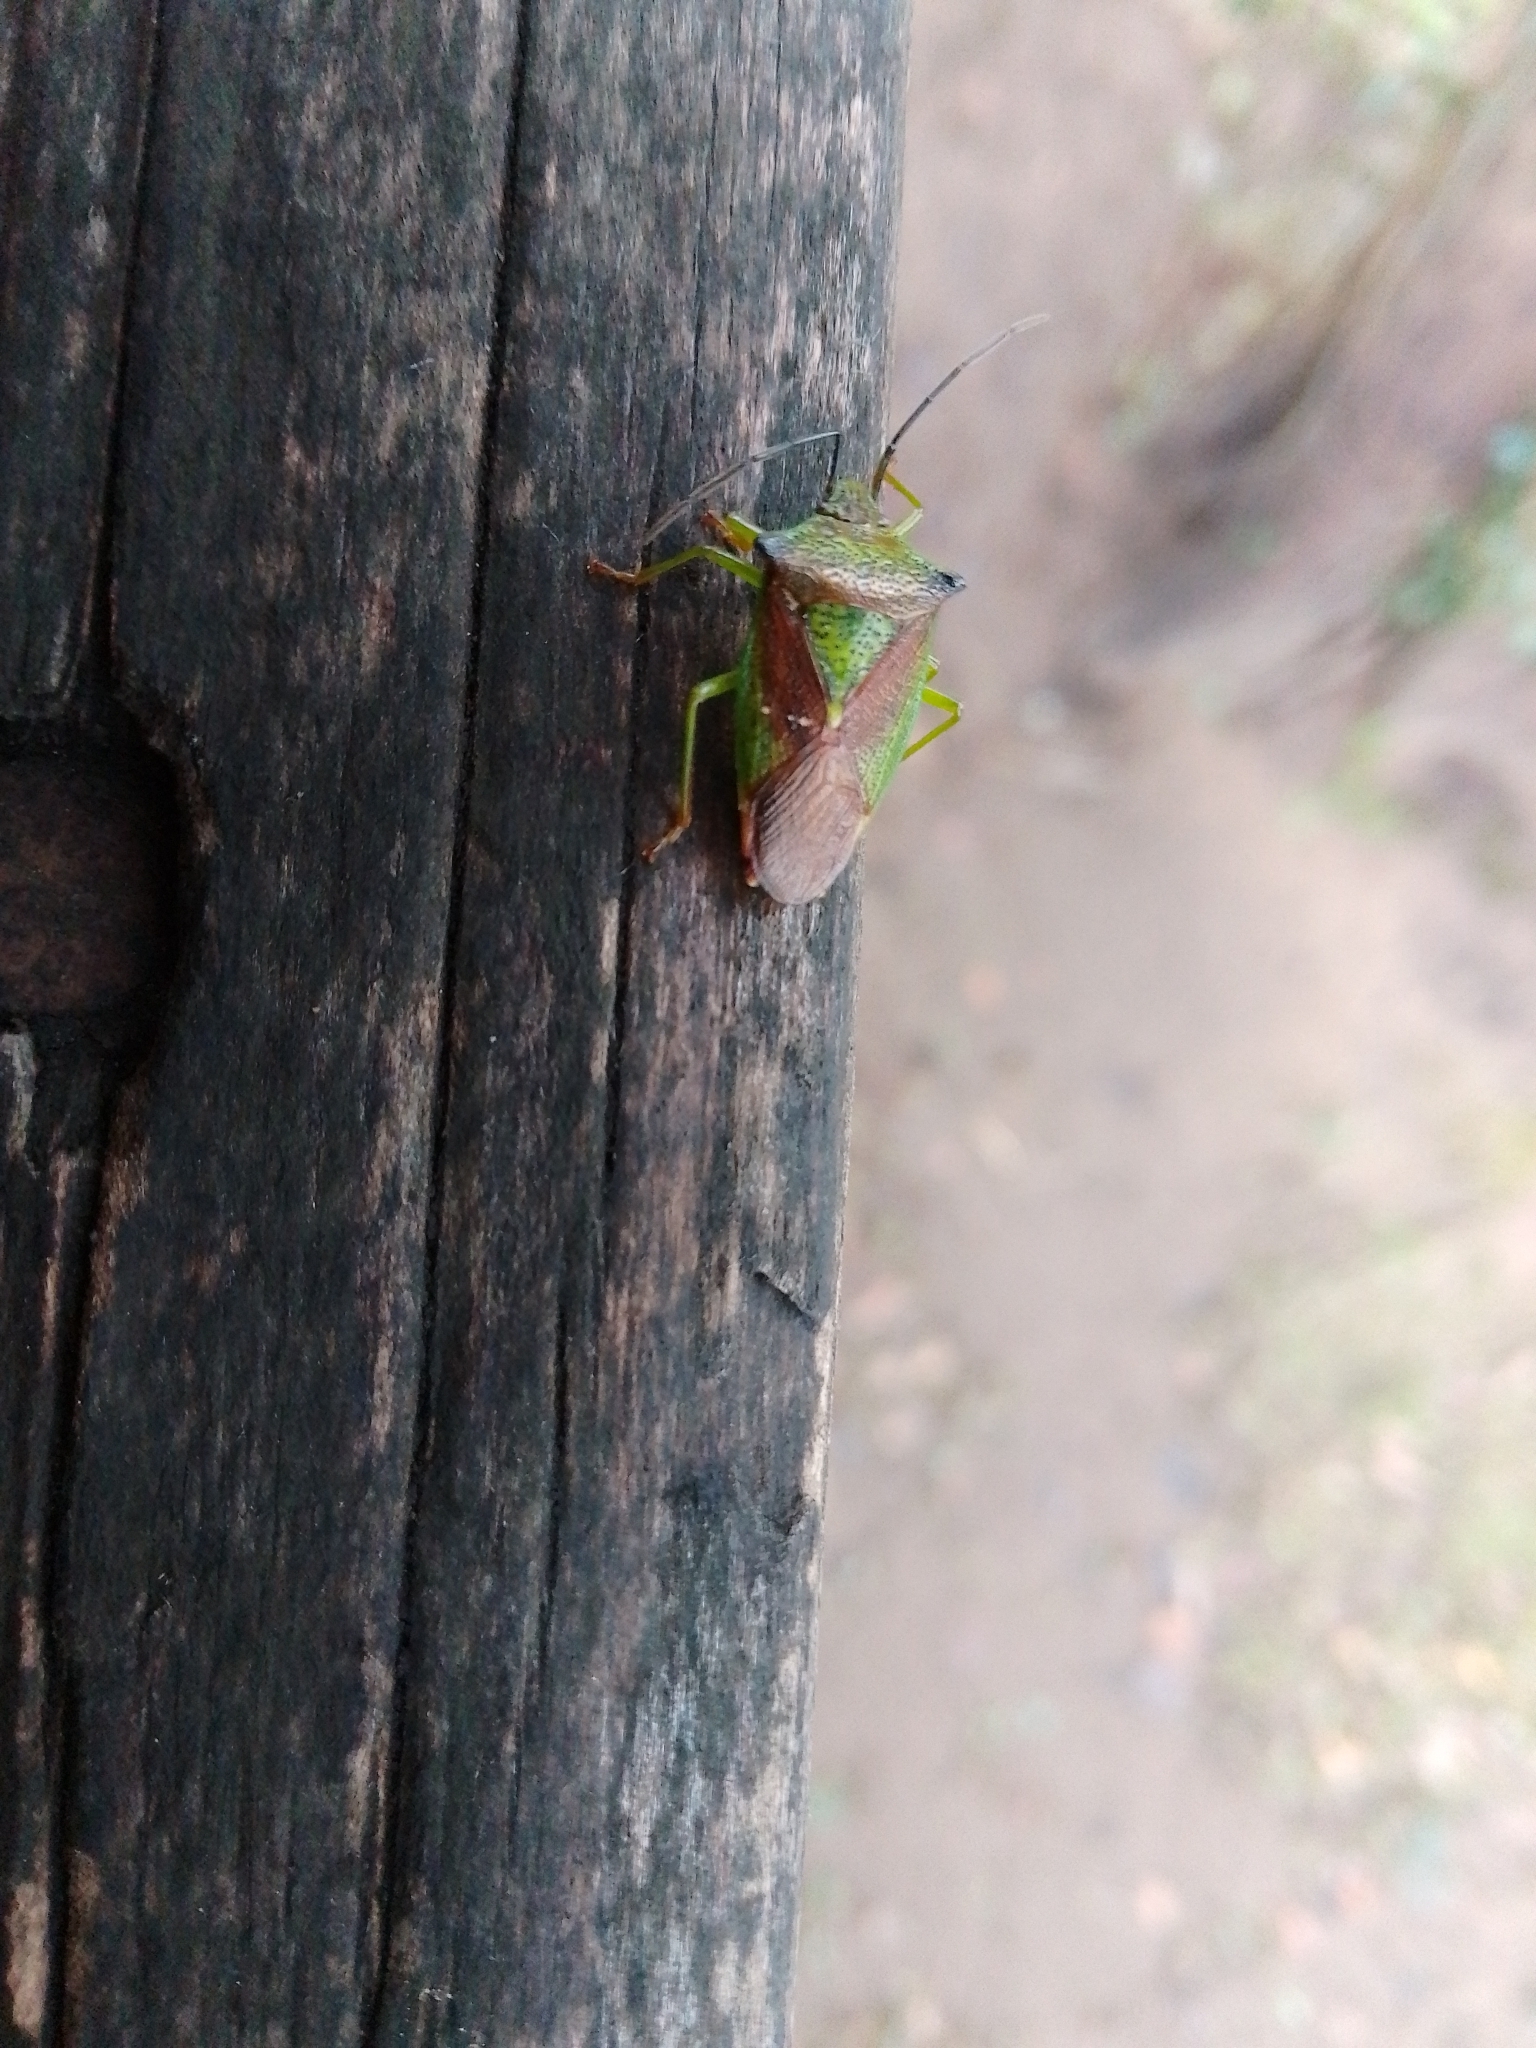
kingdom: Animalia
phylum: Arthropoda
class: Insecta
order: Hemiptera
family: Acanthosomatidae
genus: Acanthosoma
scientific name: Acanthosoma haemorrhoidale
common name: Hawthorn shieldbug
